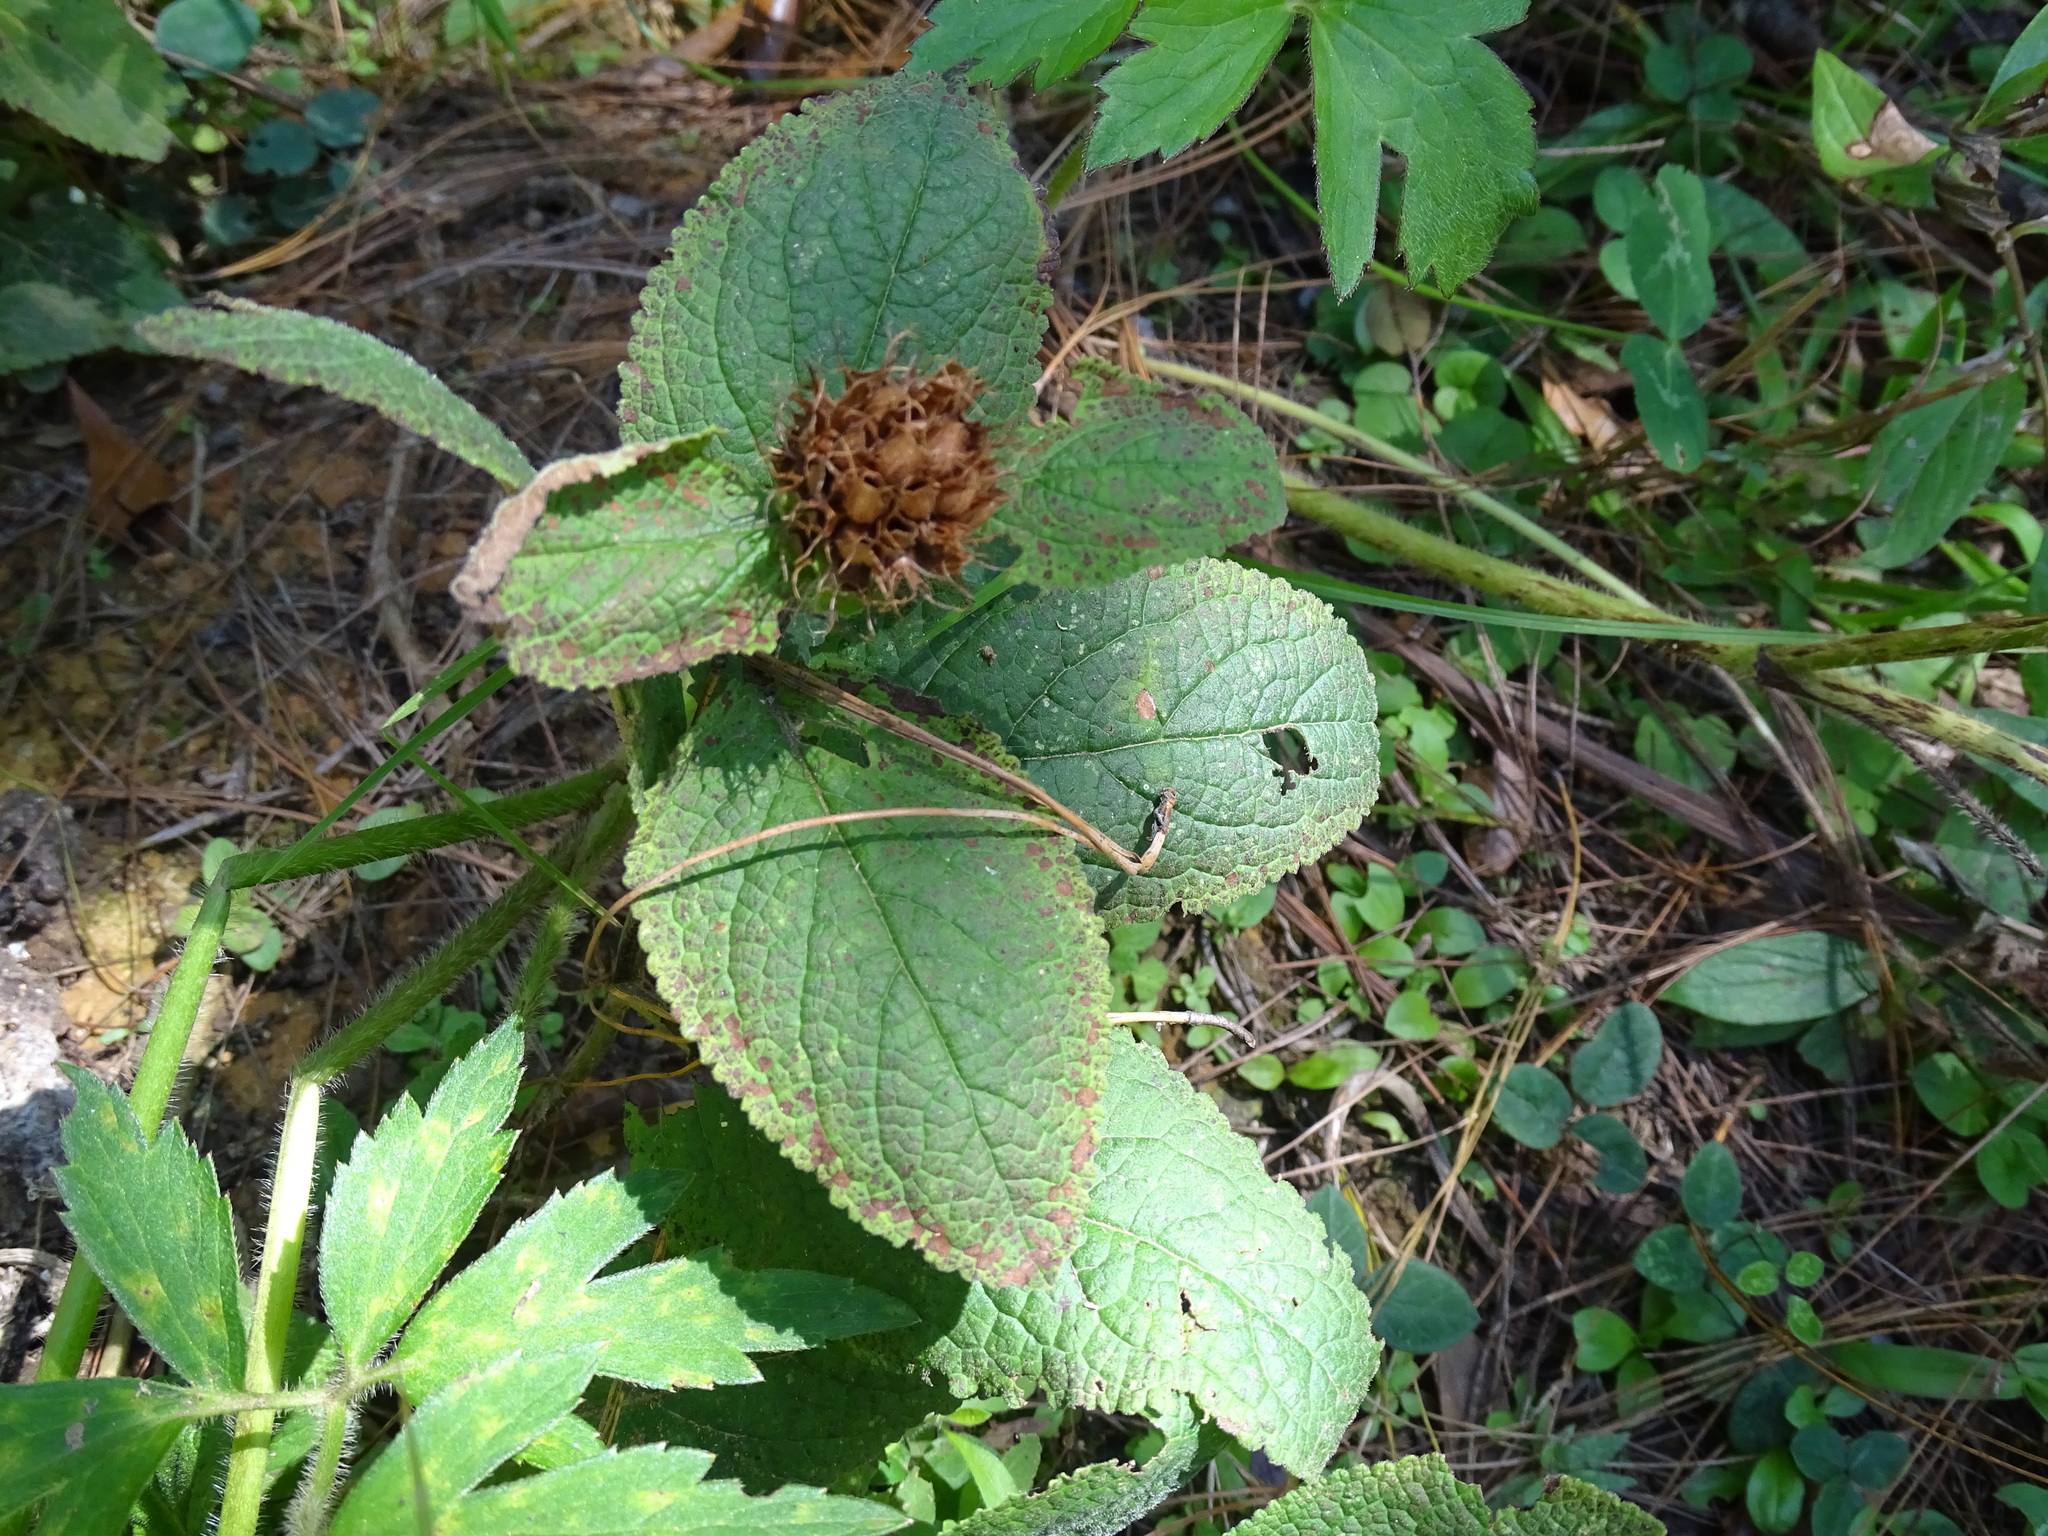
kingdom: Plantae
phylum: Tracheophyta
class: Magnoliopsida
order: Lamiales
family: Lamiaceae
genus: Lepechinia
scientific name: Lepechinia caulescens
